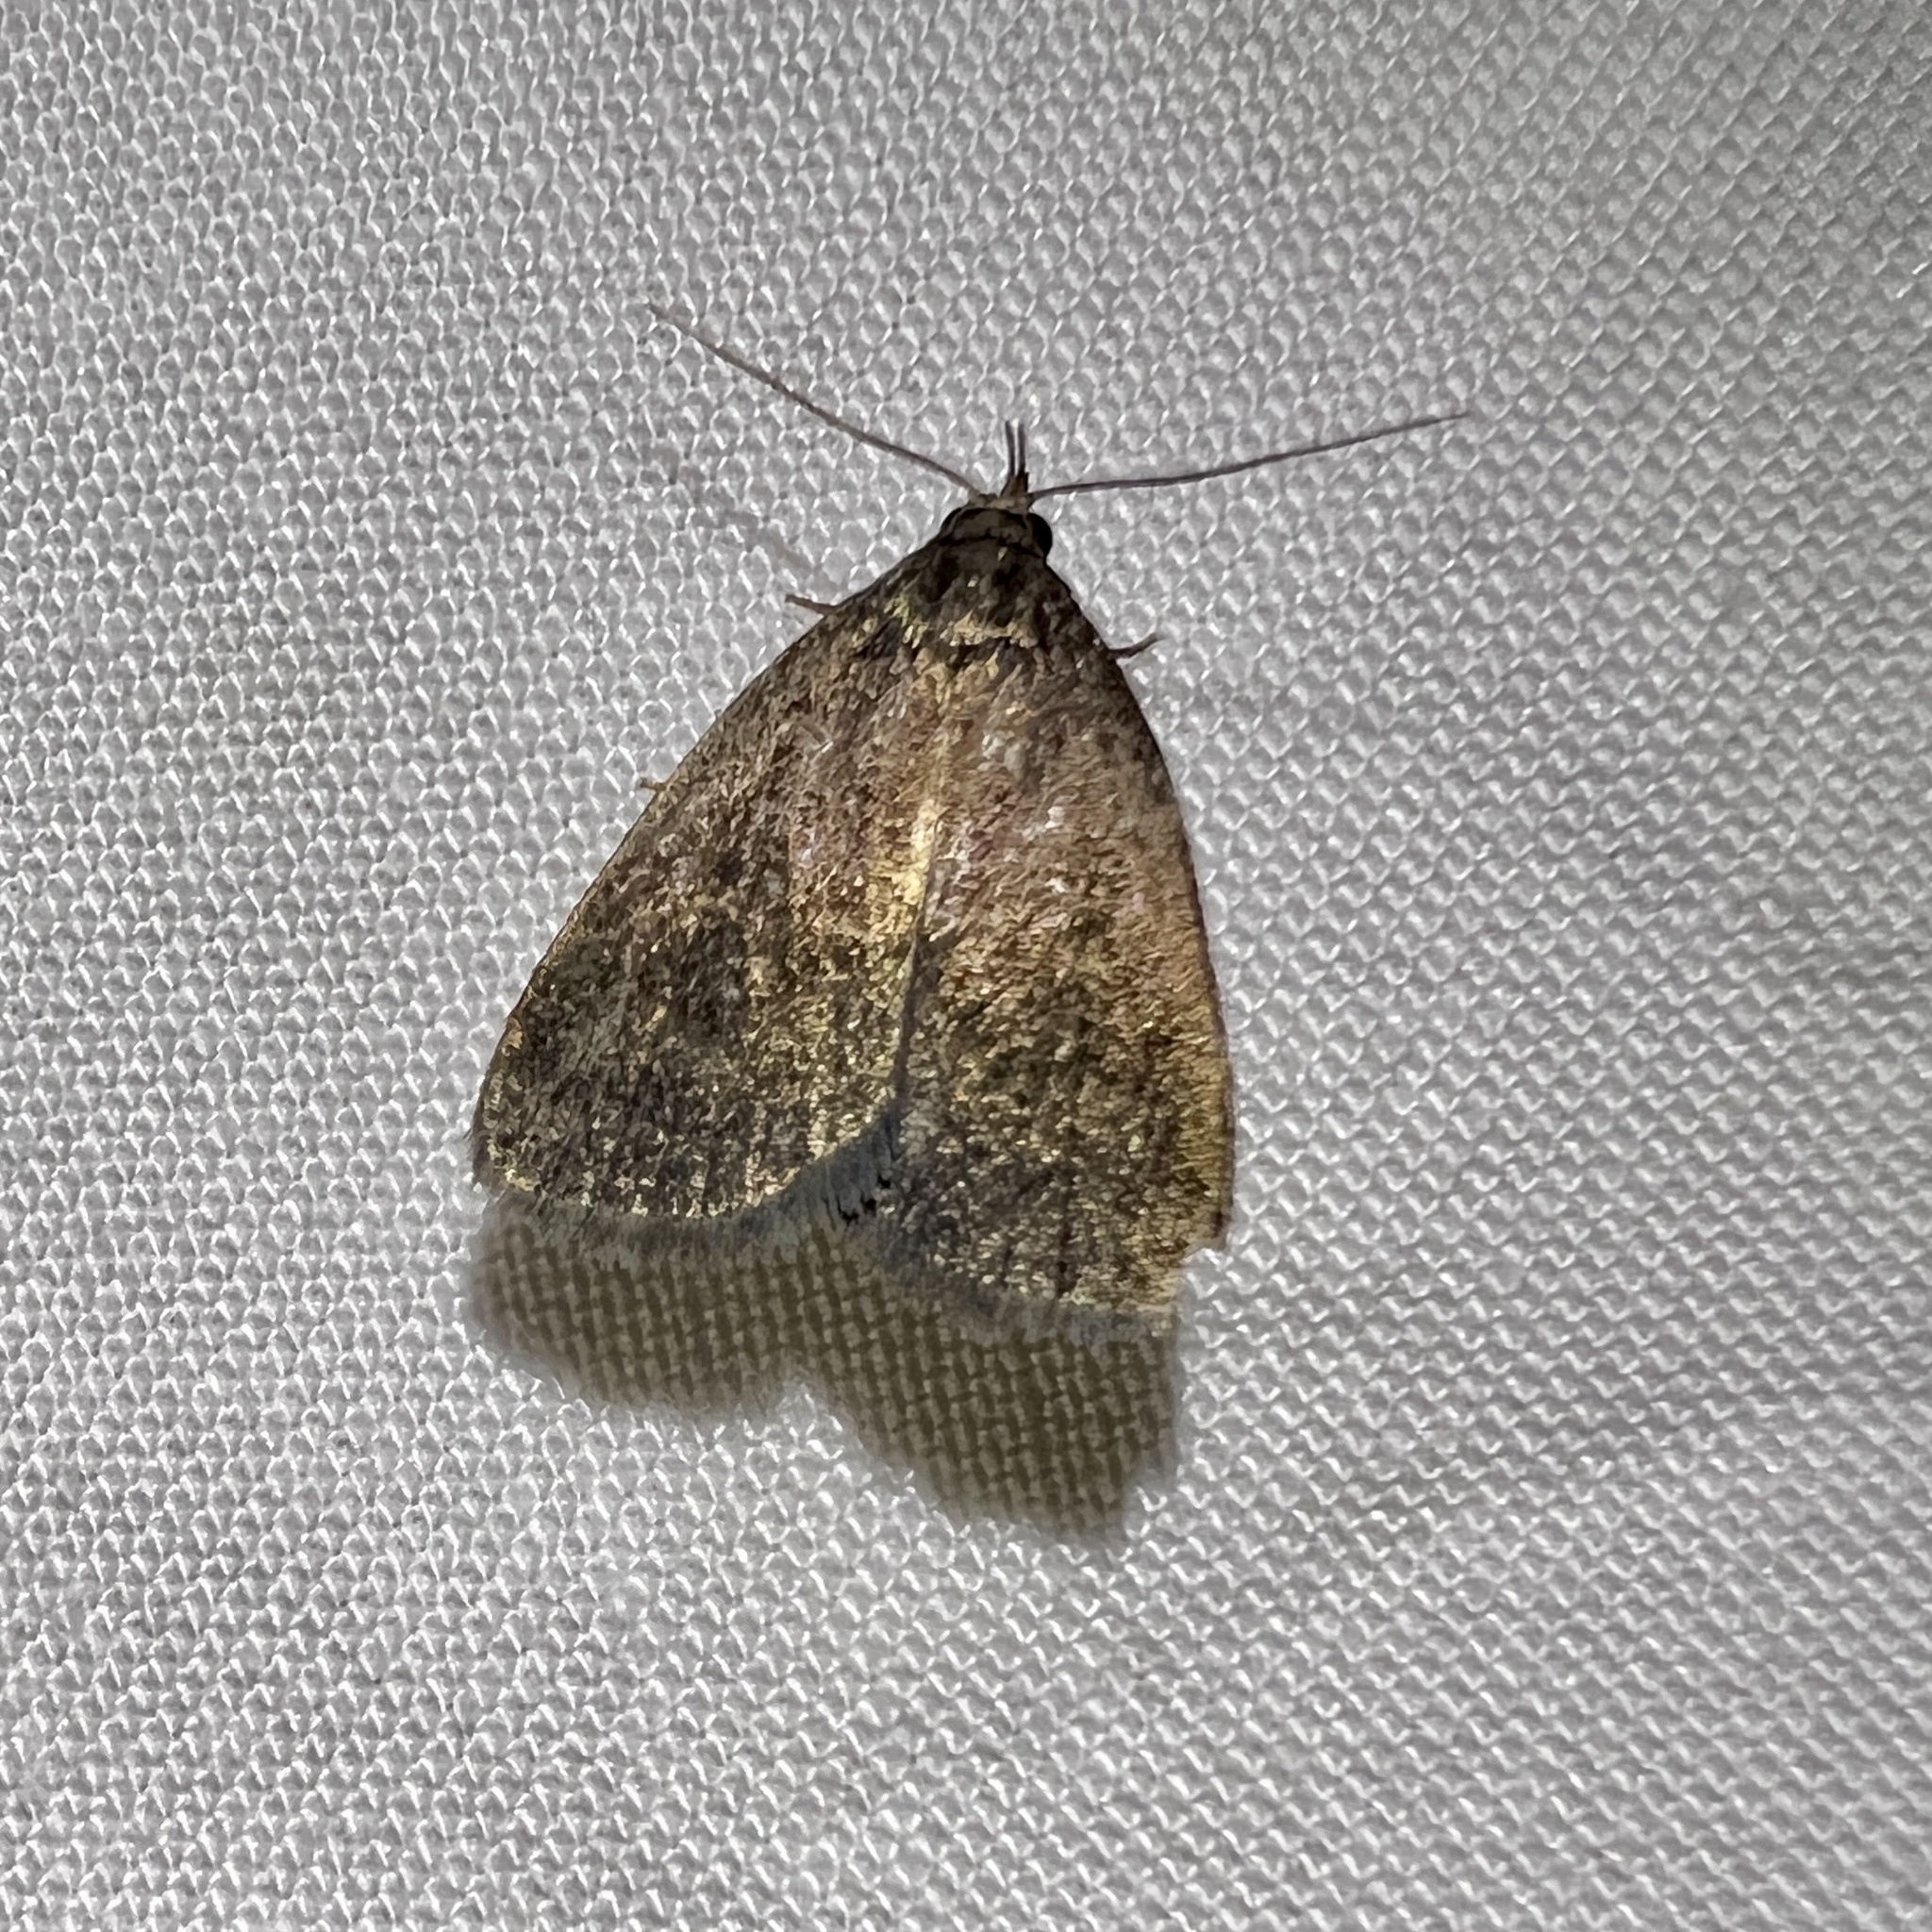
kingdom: Animalia
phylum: Arthropoda
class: Insecta
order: Lepidoptera
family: Erebidae
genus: Idia
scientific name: Idia rotundalis
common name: Rotund idia moth
